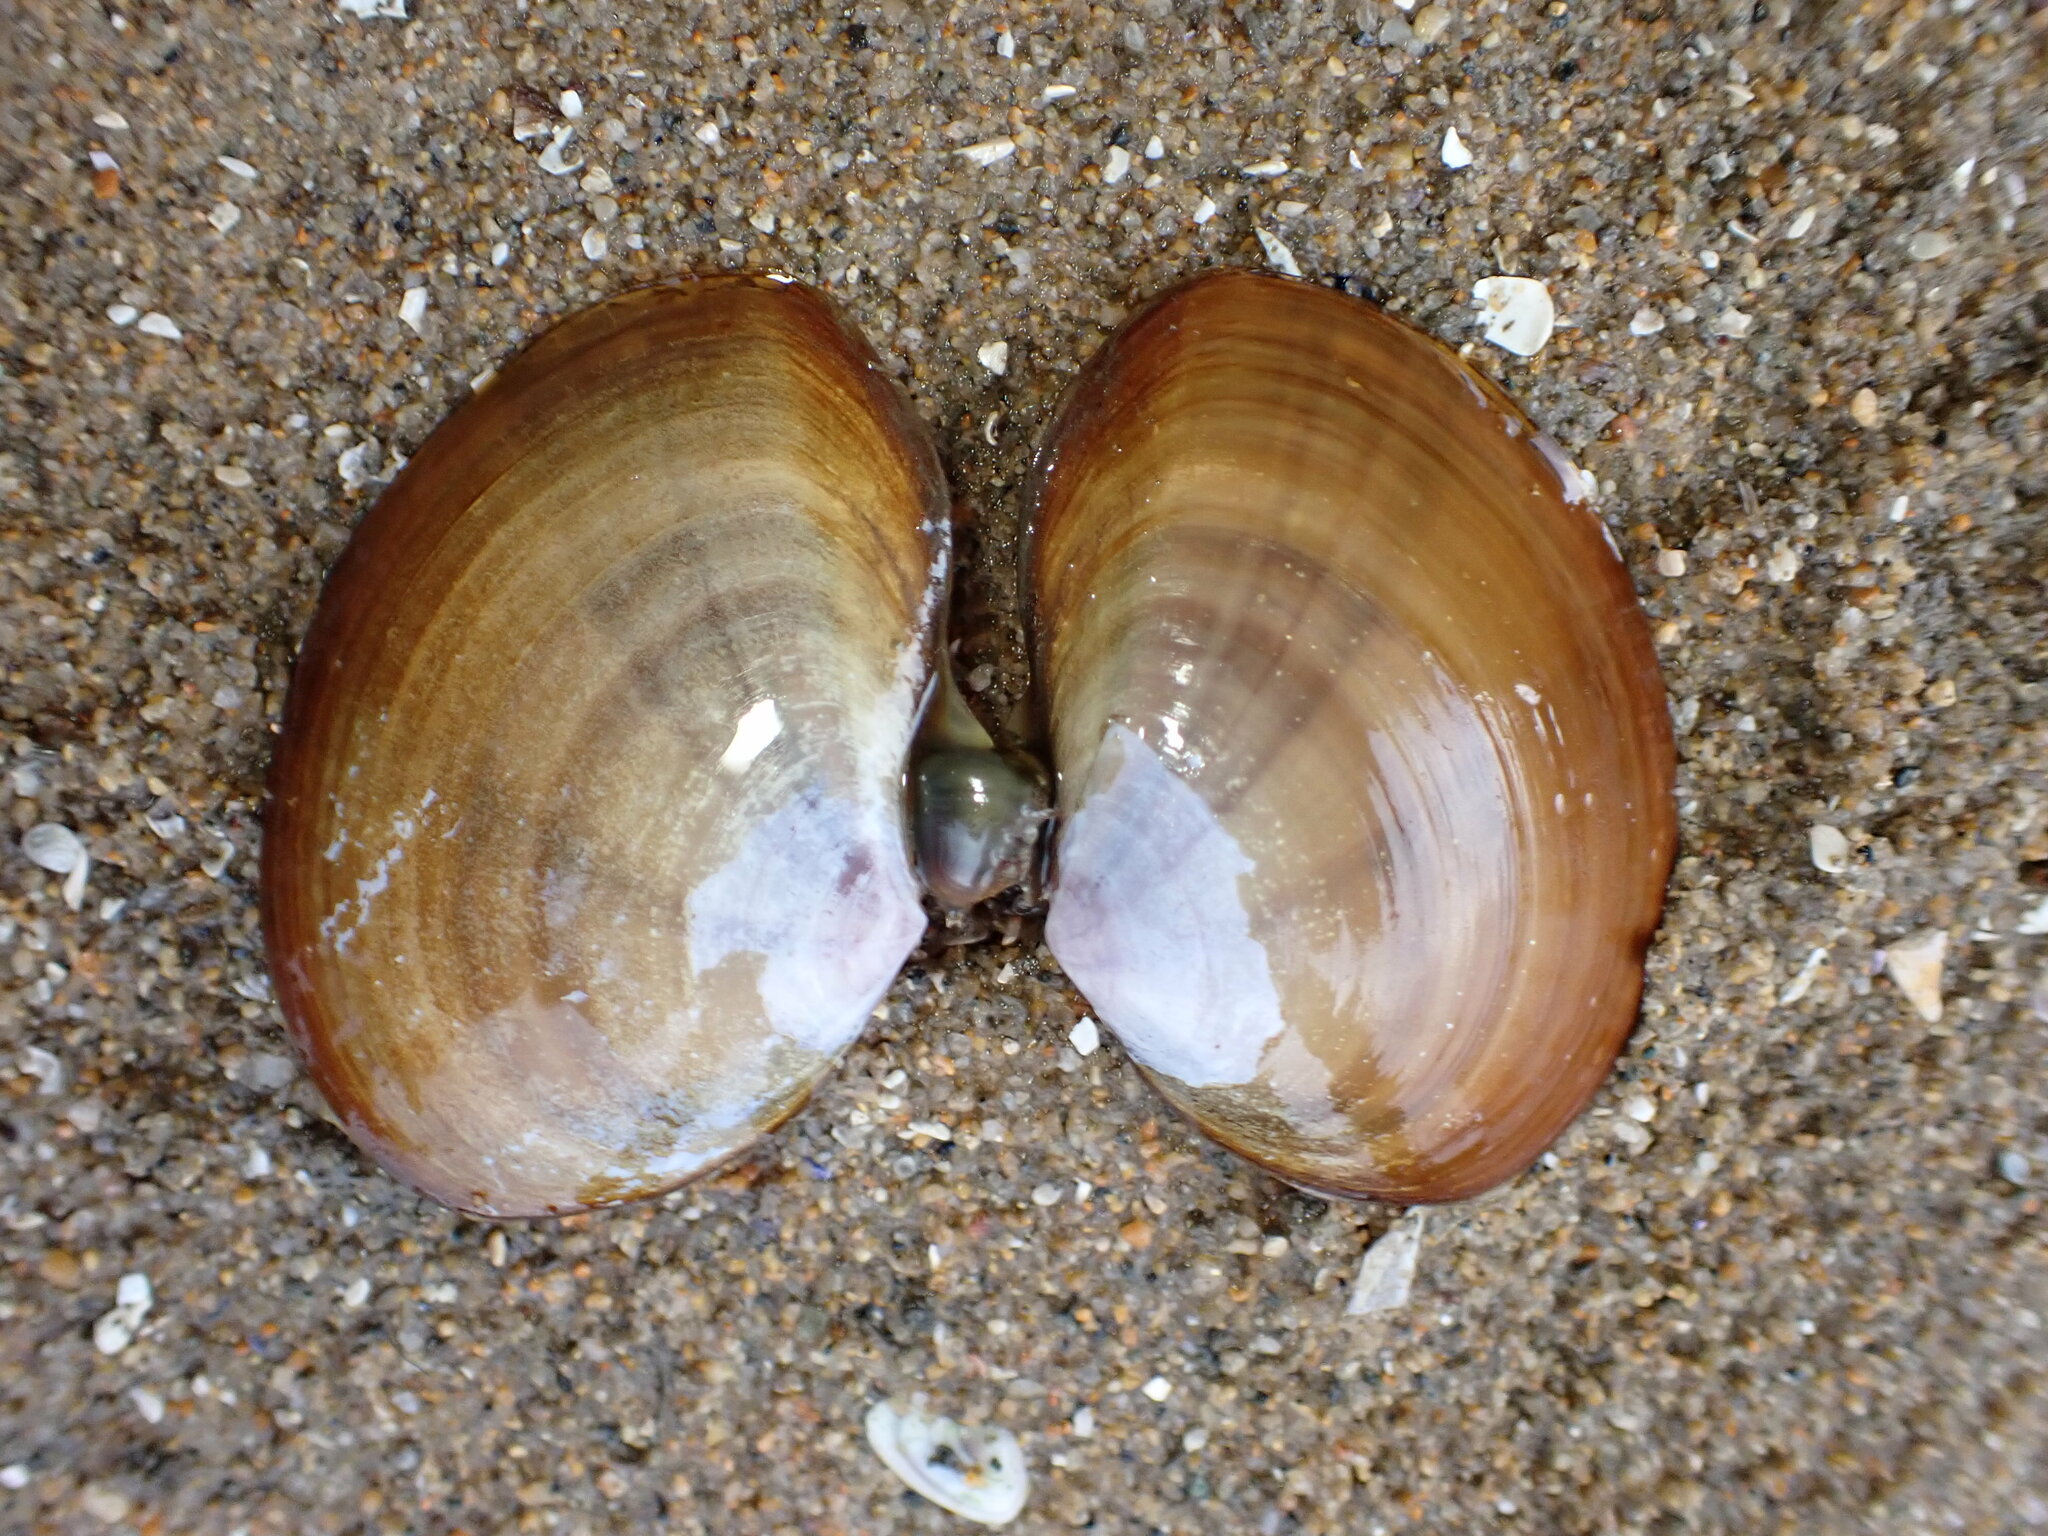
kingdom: Animalia
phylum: Mollusca
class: Bivalvia
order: Cardiida
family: Psammobiidae
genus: Nuttallia
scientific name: Nuttallia nuttallii
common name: California mahogany-clam
